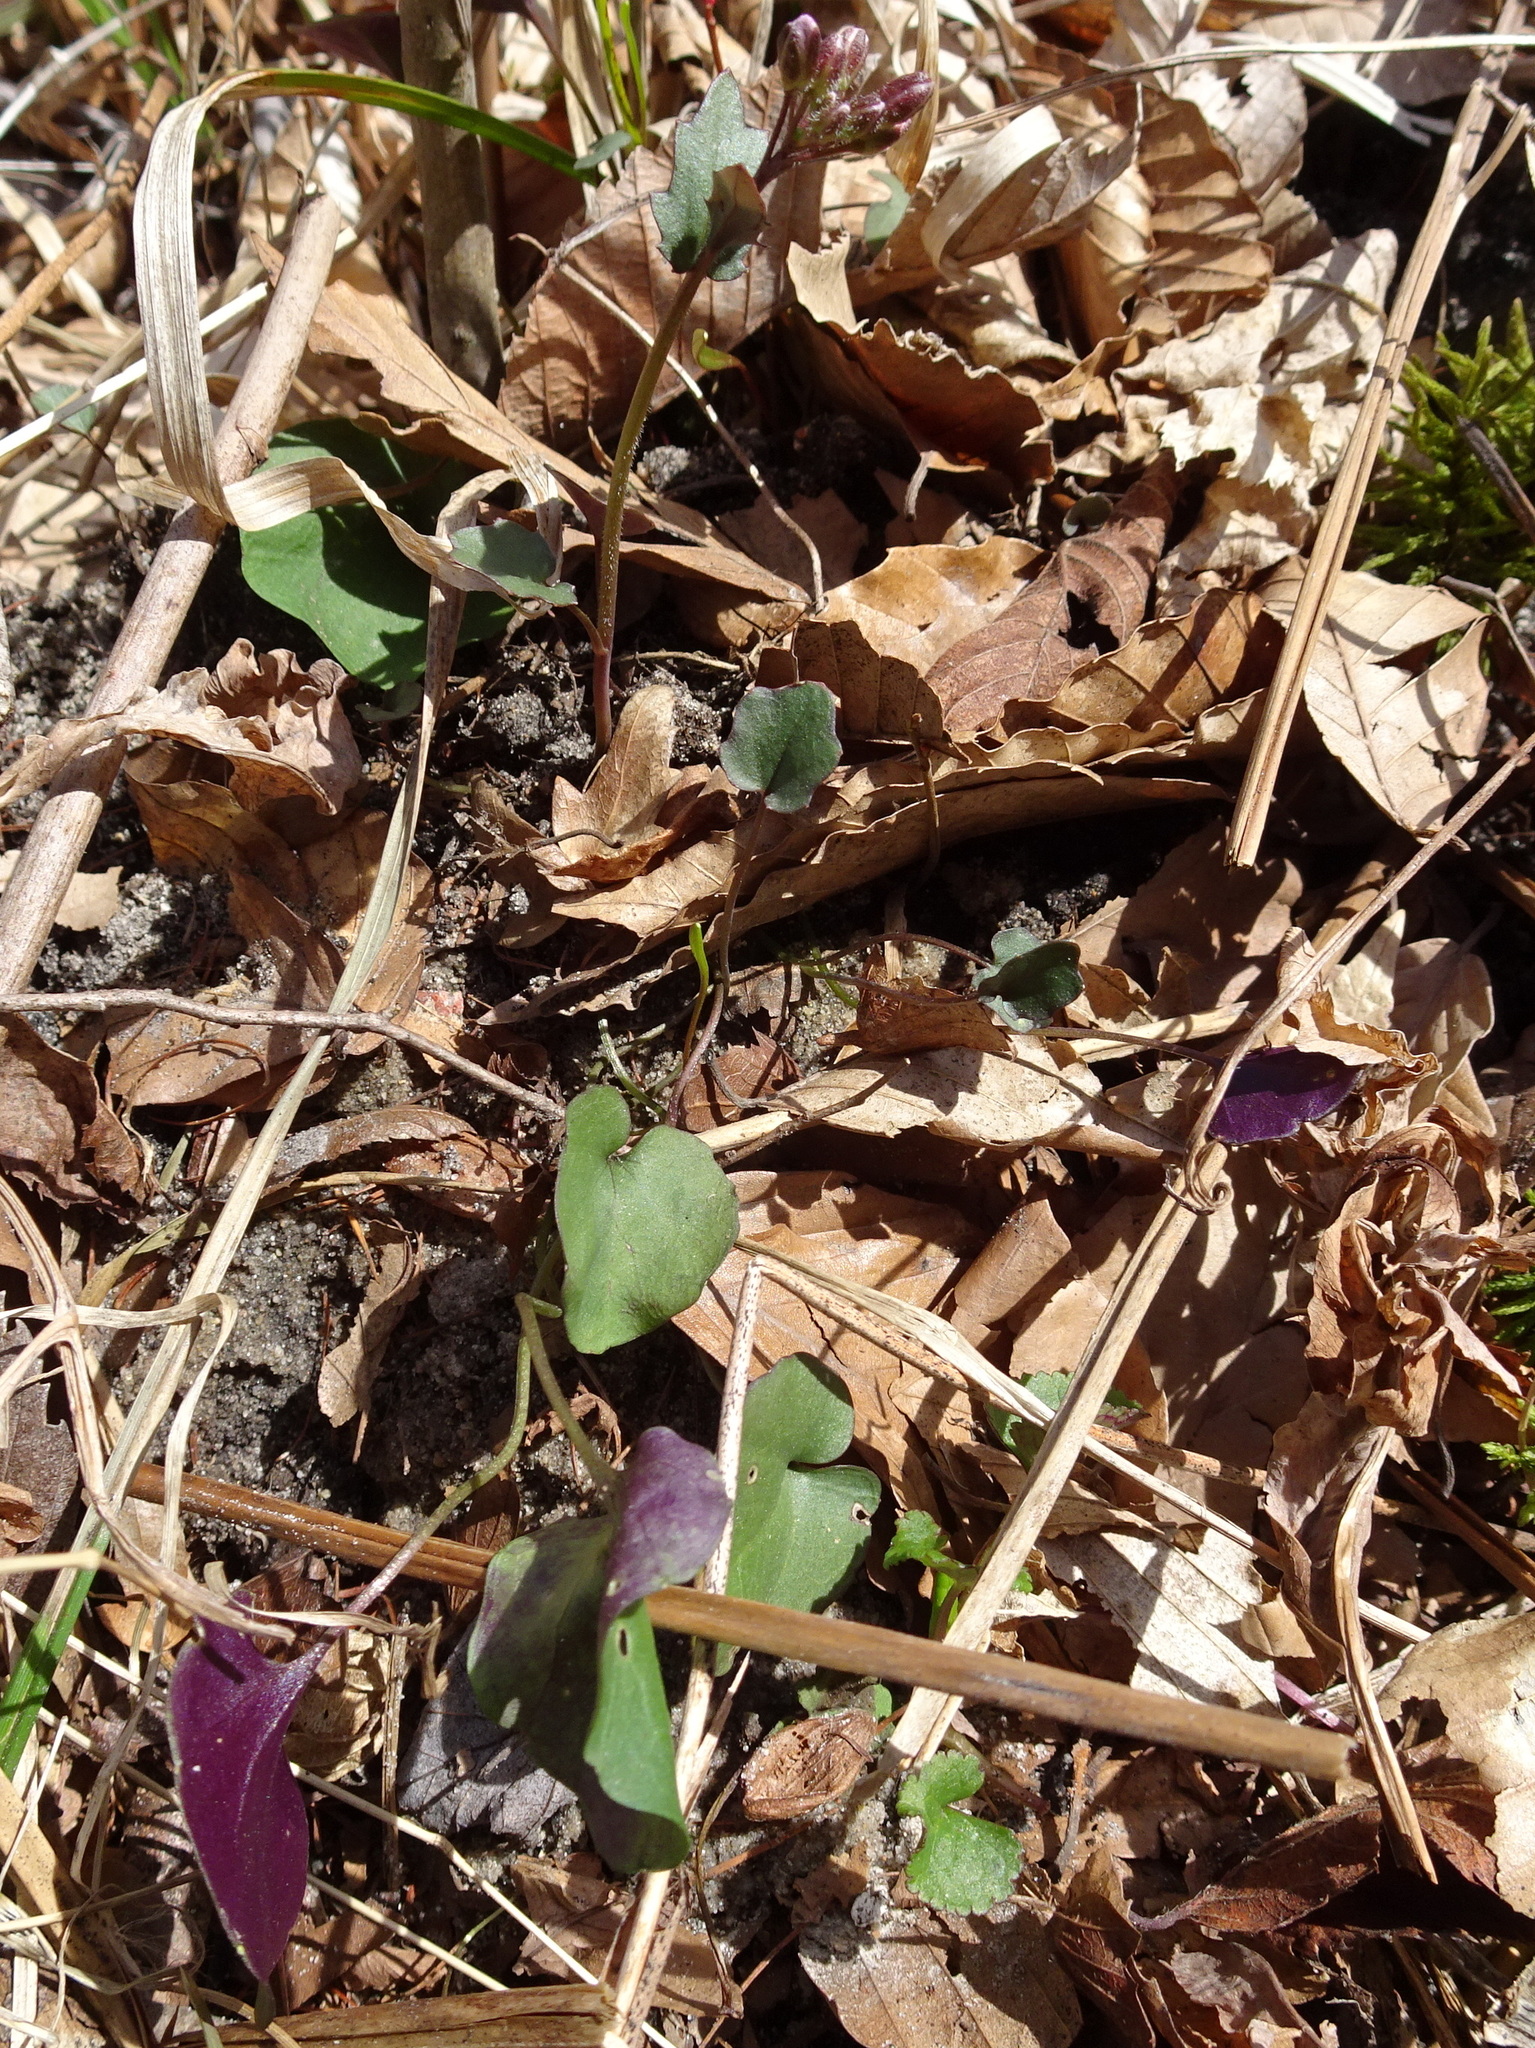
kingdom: Plantae
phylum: Tracheophyta
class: Magnoliopsida
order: Brassicales
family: Brassicaceae
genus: Cardamine
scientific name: Cardamine douglassii
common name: Purple cress
